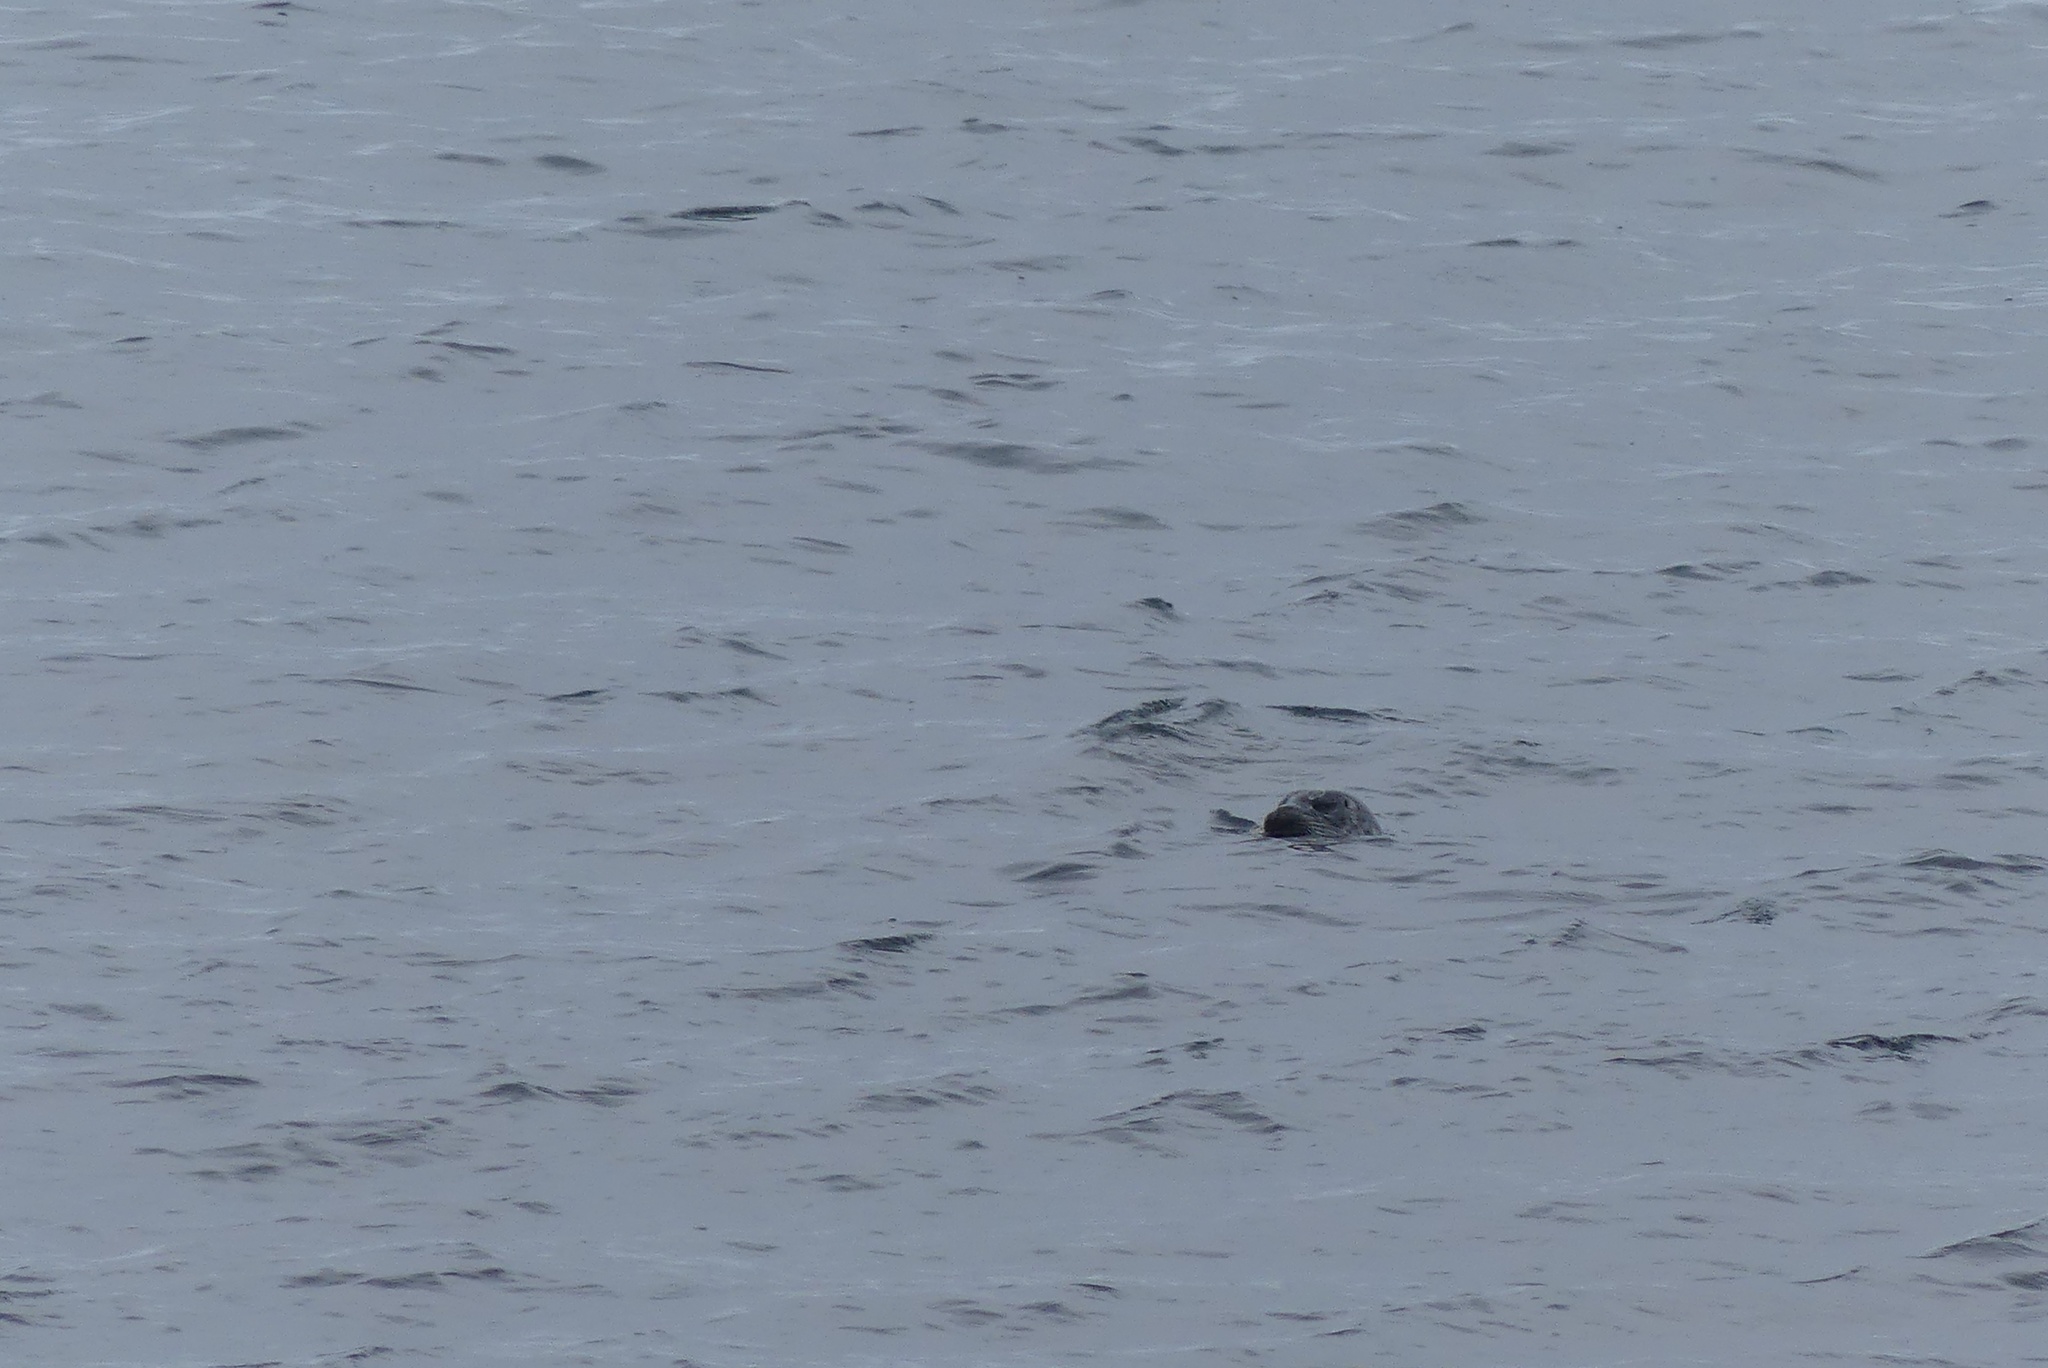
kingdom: Animalia
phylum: Chordata
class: Mammalia
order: Carnivora
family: Phocidae
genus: Phoca
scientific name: Phoca vitulina
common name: Harbor seal
